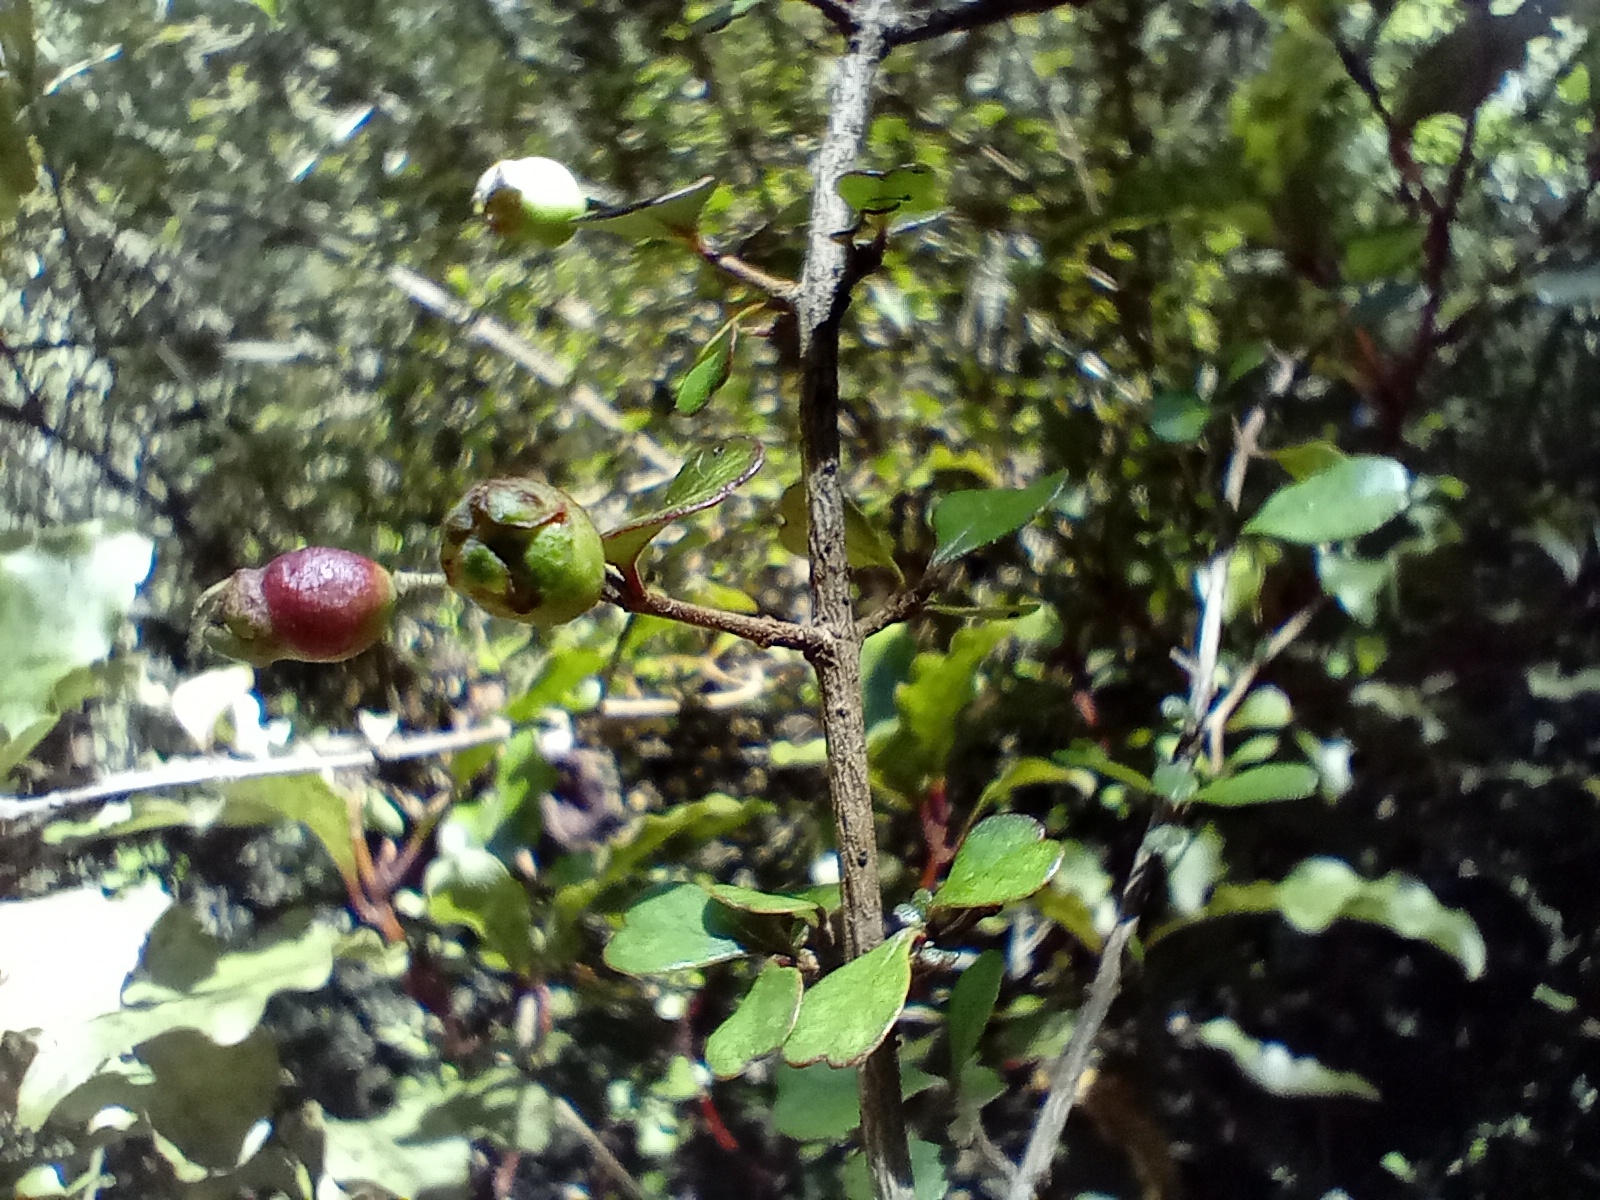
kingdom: Plantae
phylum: Tracheophyta
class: Magnoliopsida
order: Myrtales
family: Myrtaceae
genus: Lophomyrtus
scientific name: Lophomyrtus obcordata
